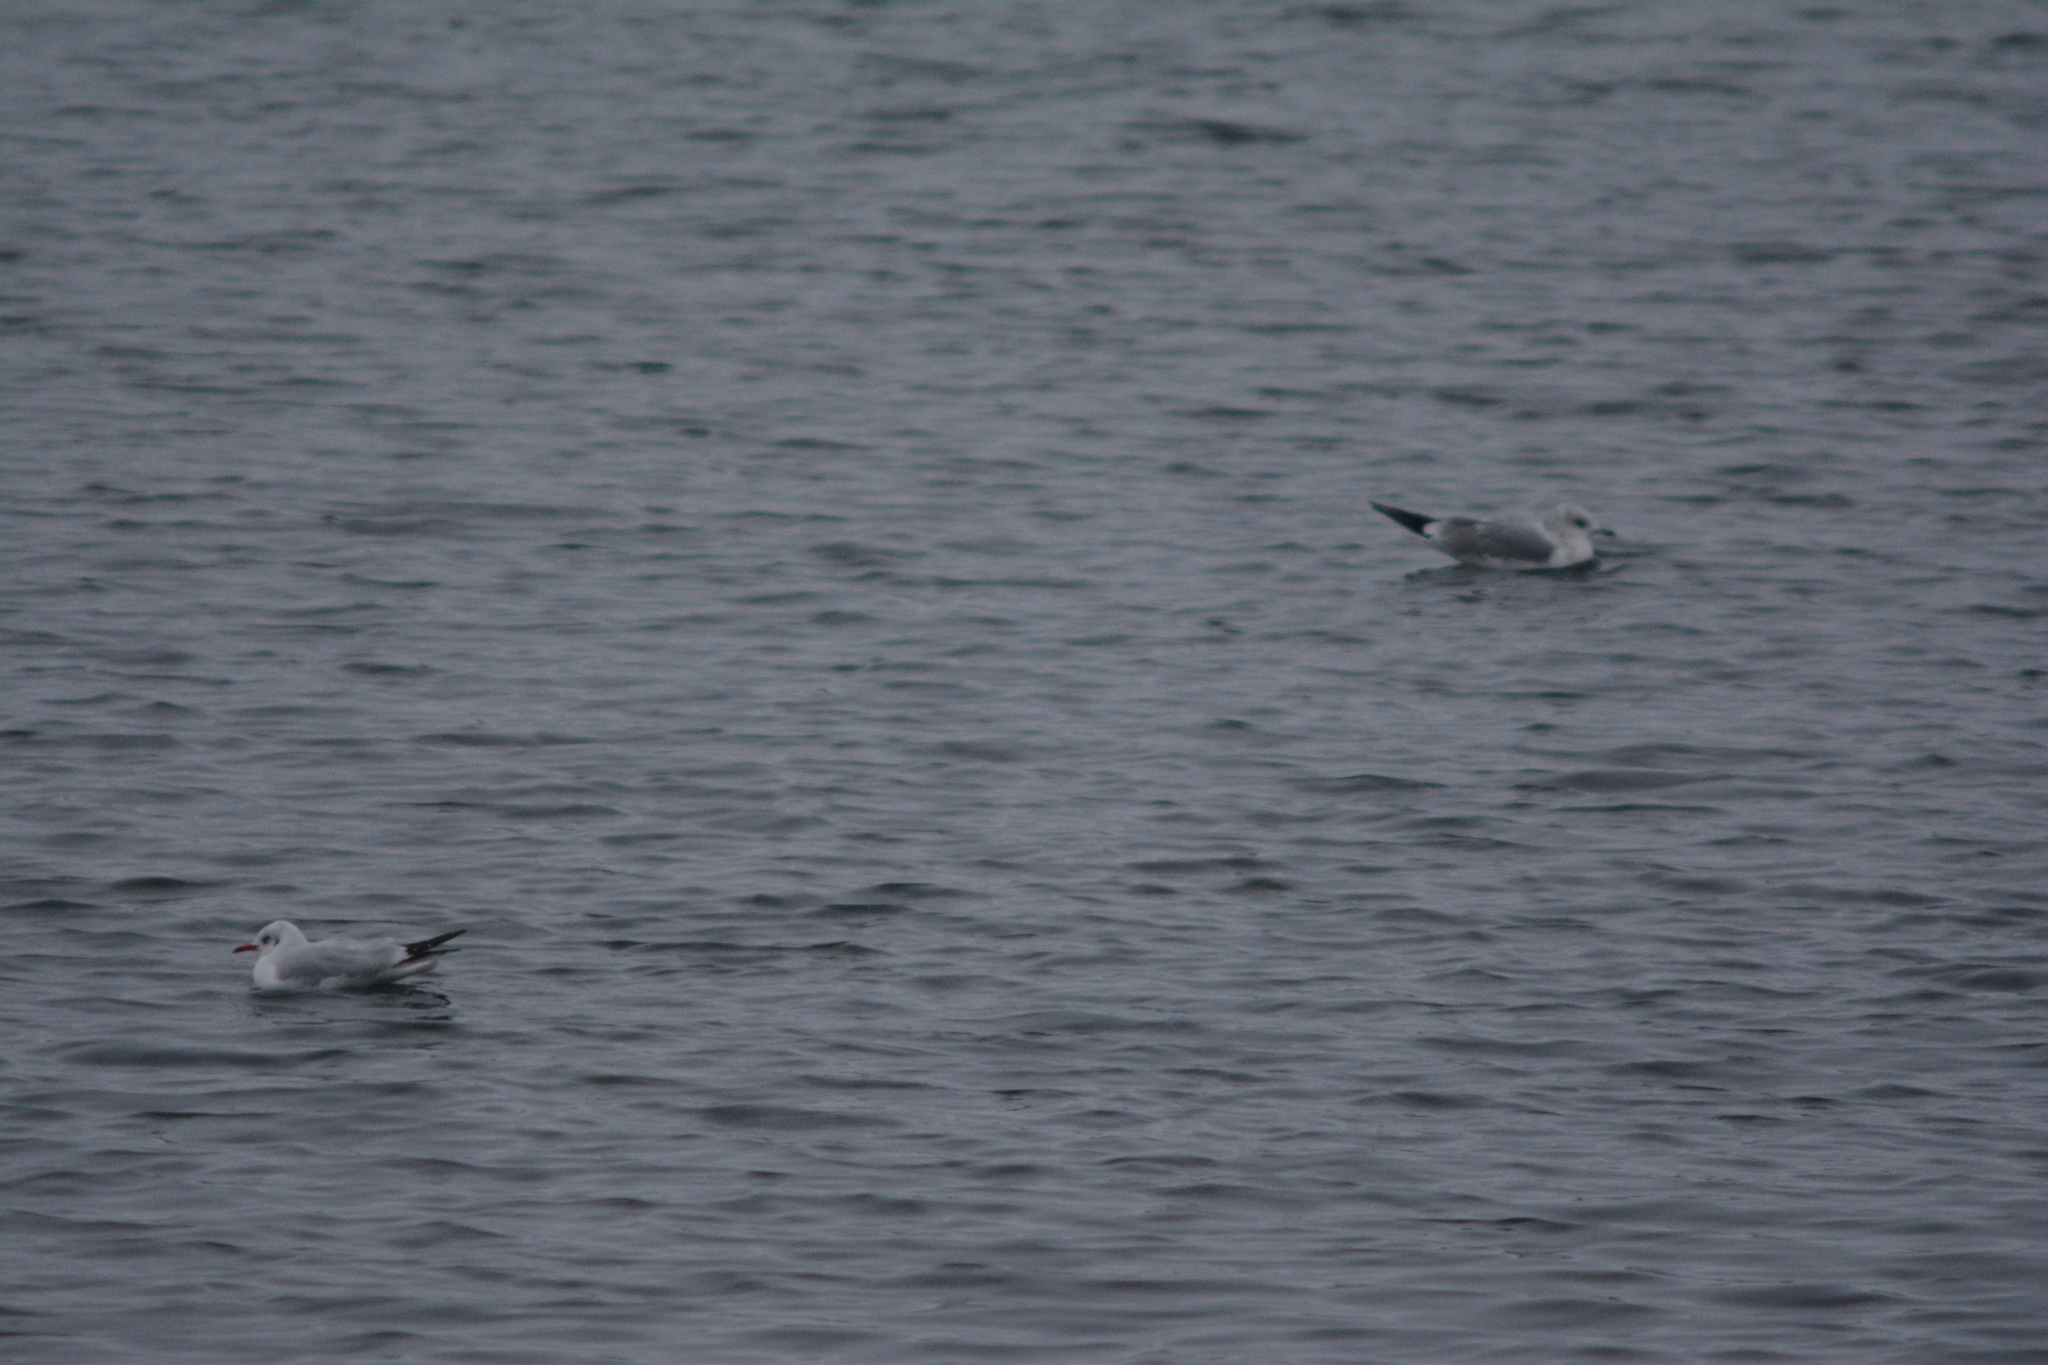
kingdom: Animalia
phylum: Chordata
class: Aves
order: Charadriiformes
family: Laridae
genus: Chroicocephalus
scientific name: Chroicocephalus ridibundus
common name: Black-headed gull
